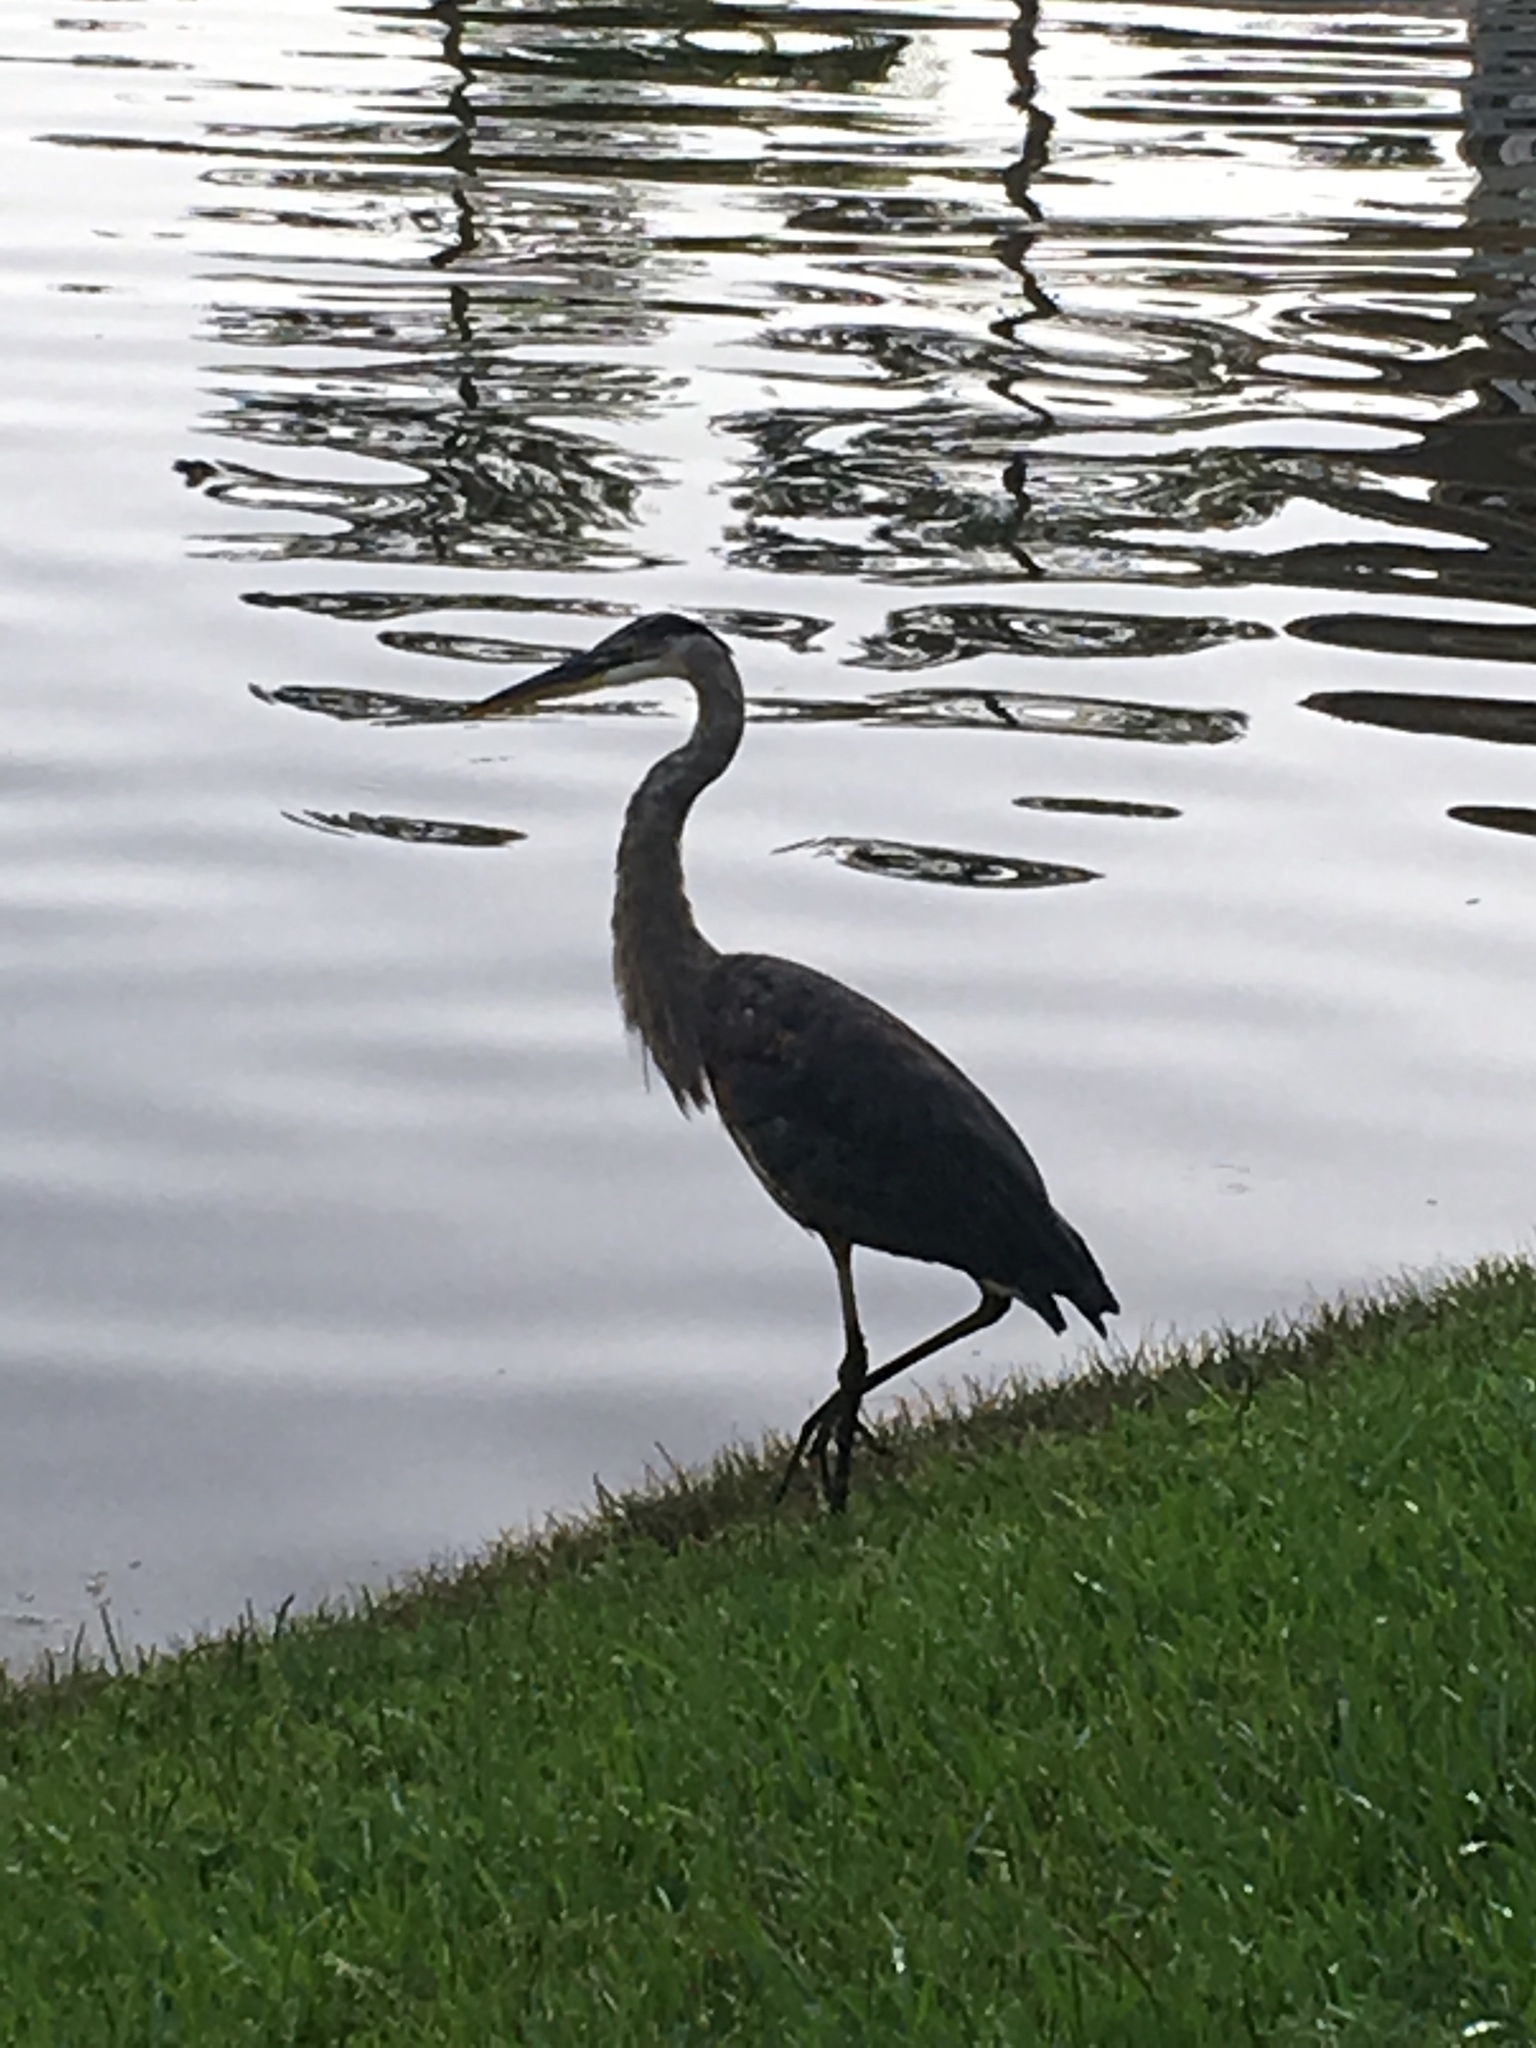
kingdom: Animalia
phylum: Chordata
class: Aves
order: Pelecaniformes
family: Ardeidae
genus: Ardea
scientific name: Ardea herodias
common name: Great blue heron
